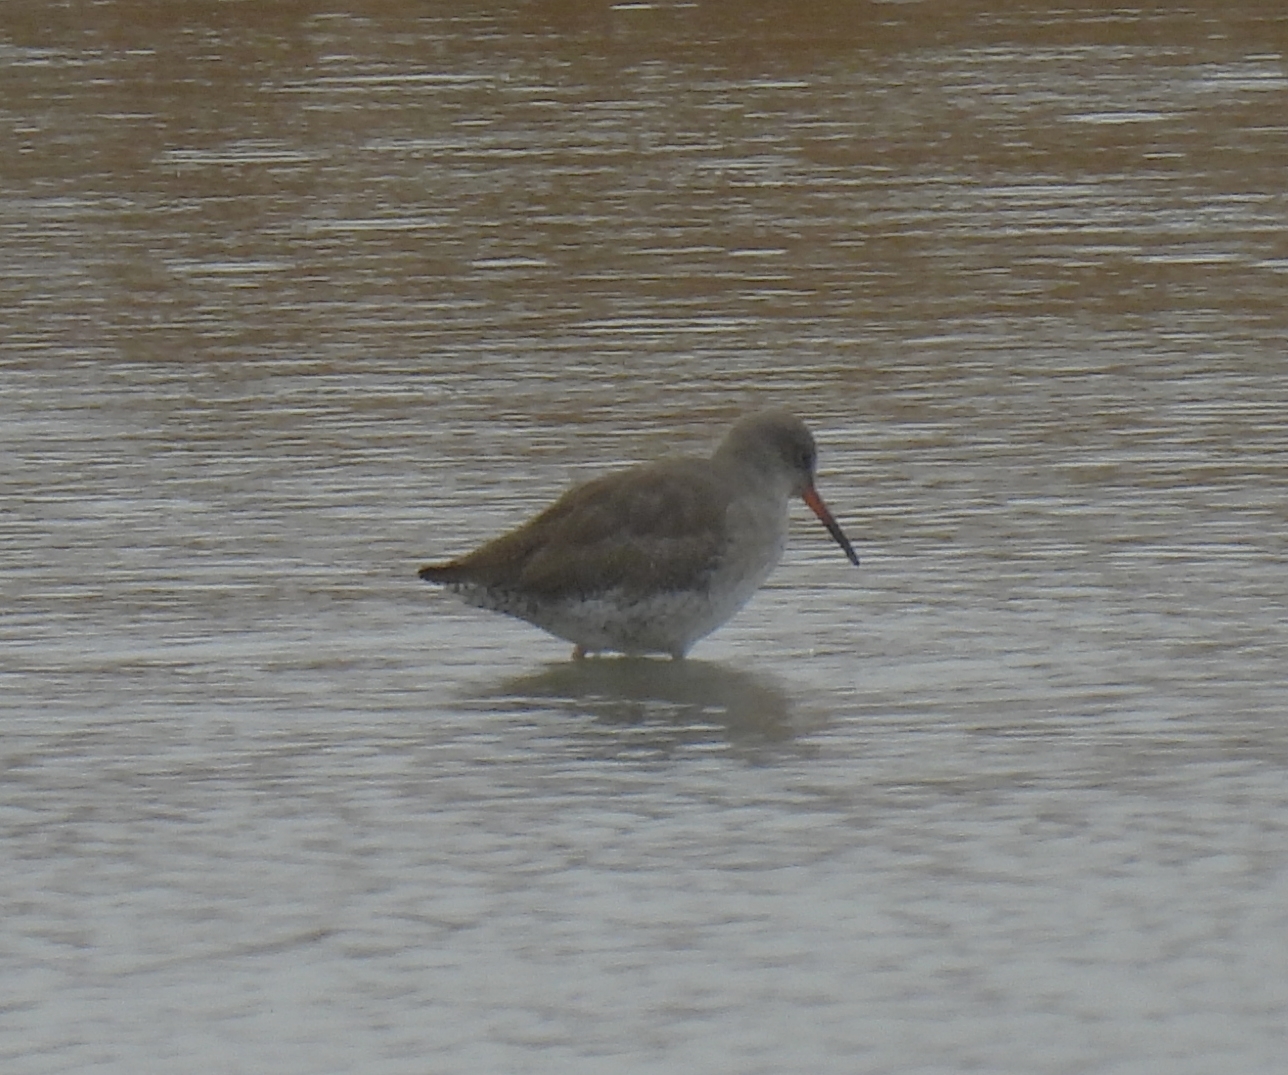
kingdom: Animalia
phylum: Chordata
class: Aves
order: Charadriiformes
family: Scolopacidae
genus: Tringa
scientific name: Tringa totanus
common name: Common redshank
